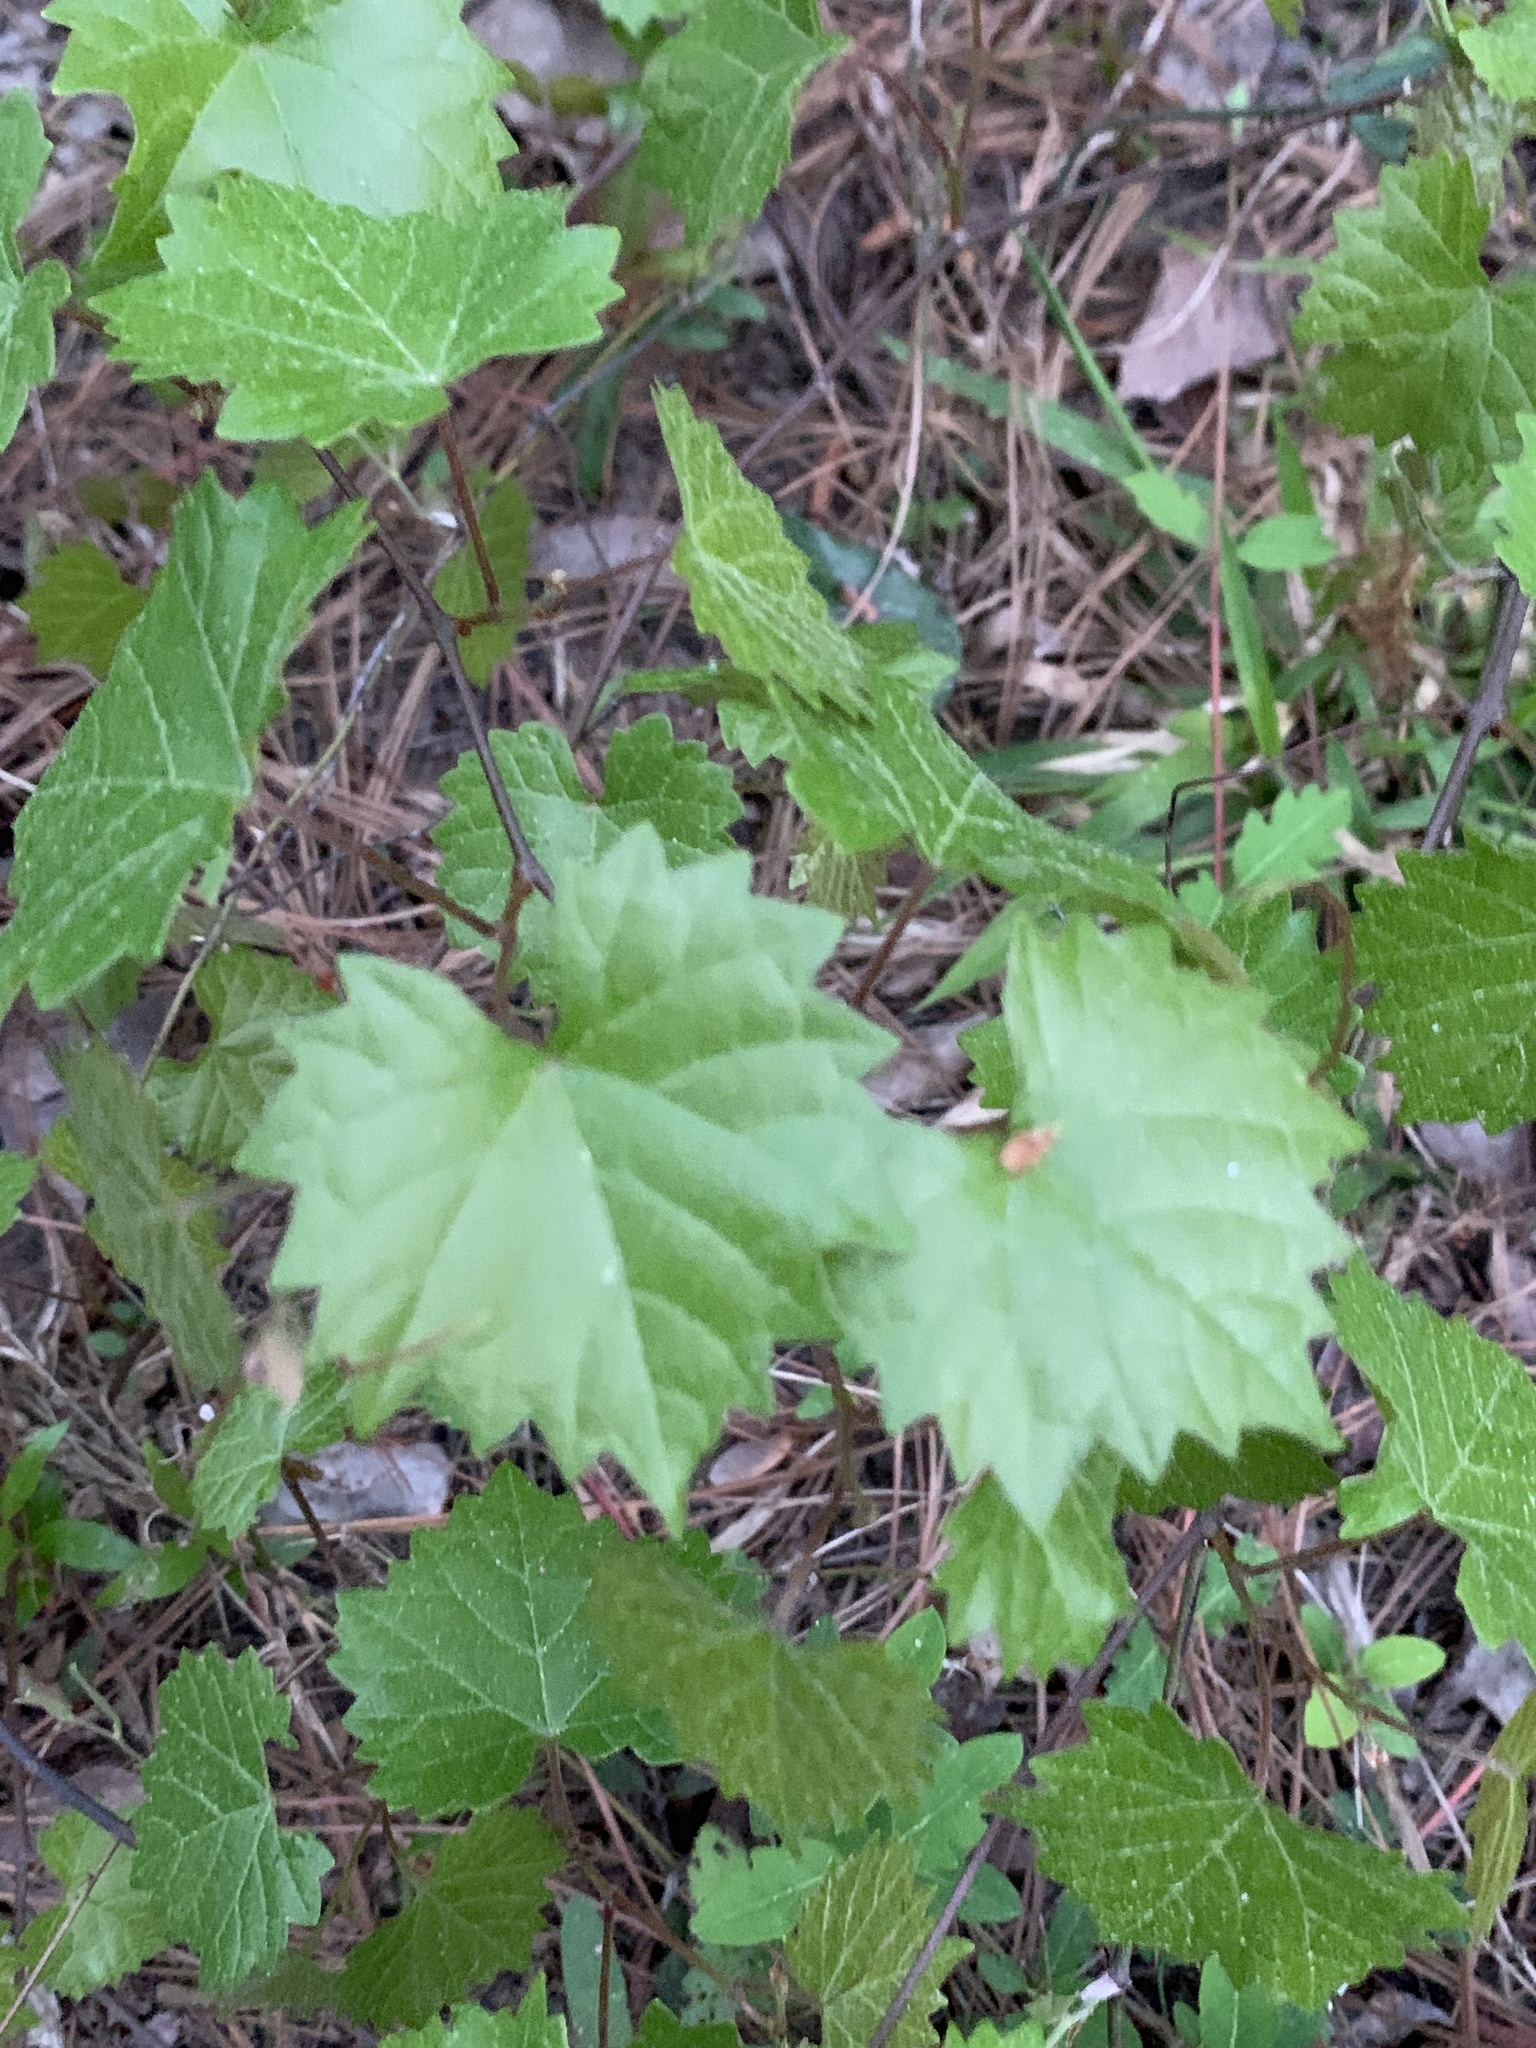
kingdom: Plantae
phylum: Tracheophyta
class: Magnoliopsida
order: Vitales
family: Vitaceae
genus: Vitis
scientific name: Vitis rotundifolia
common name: Muscadine grape
